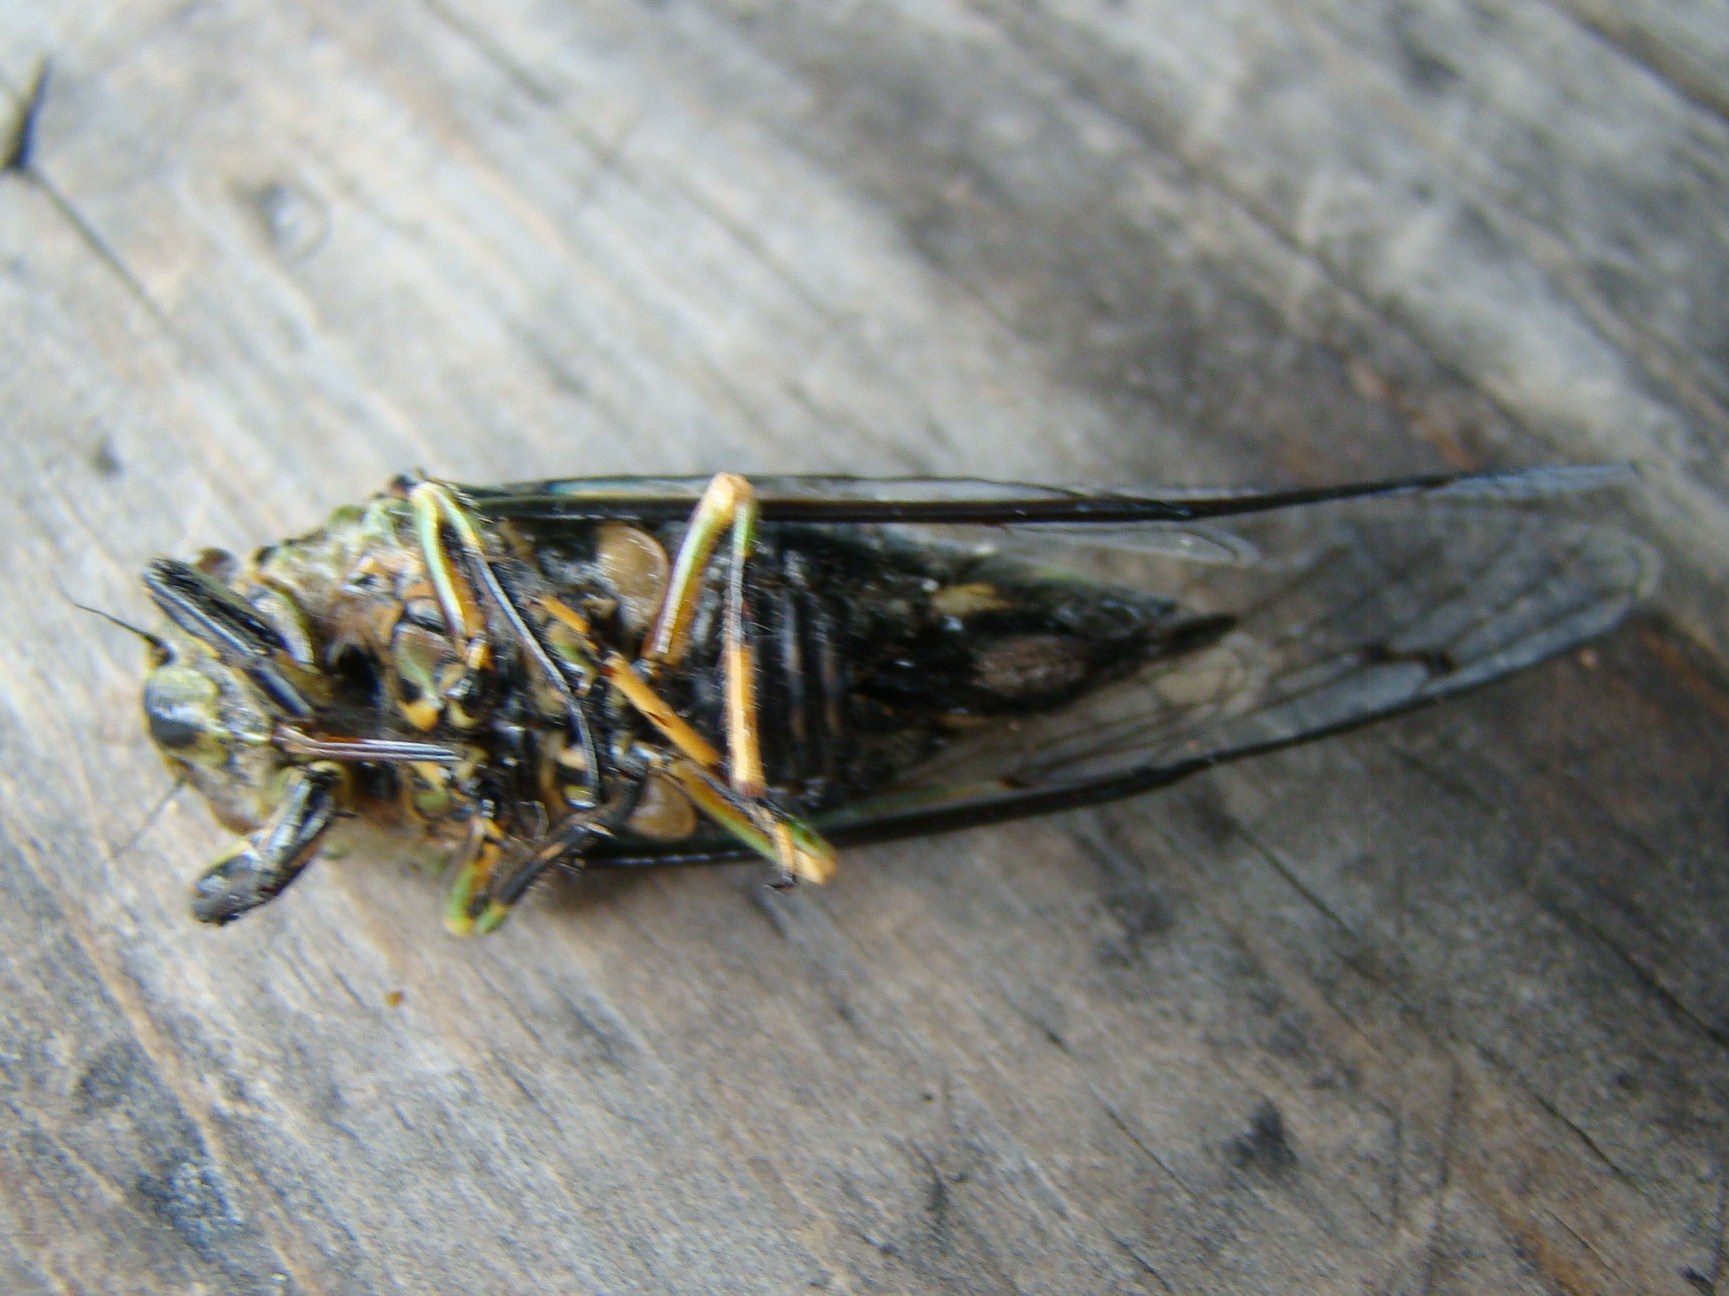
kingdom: Animalia
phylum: Arthropoda
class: Insecta
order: Hemiptera
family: Cicadidae
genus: Amphipsalta
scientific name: Amphipsalta zelandica
